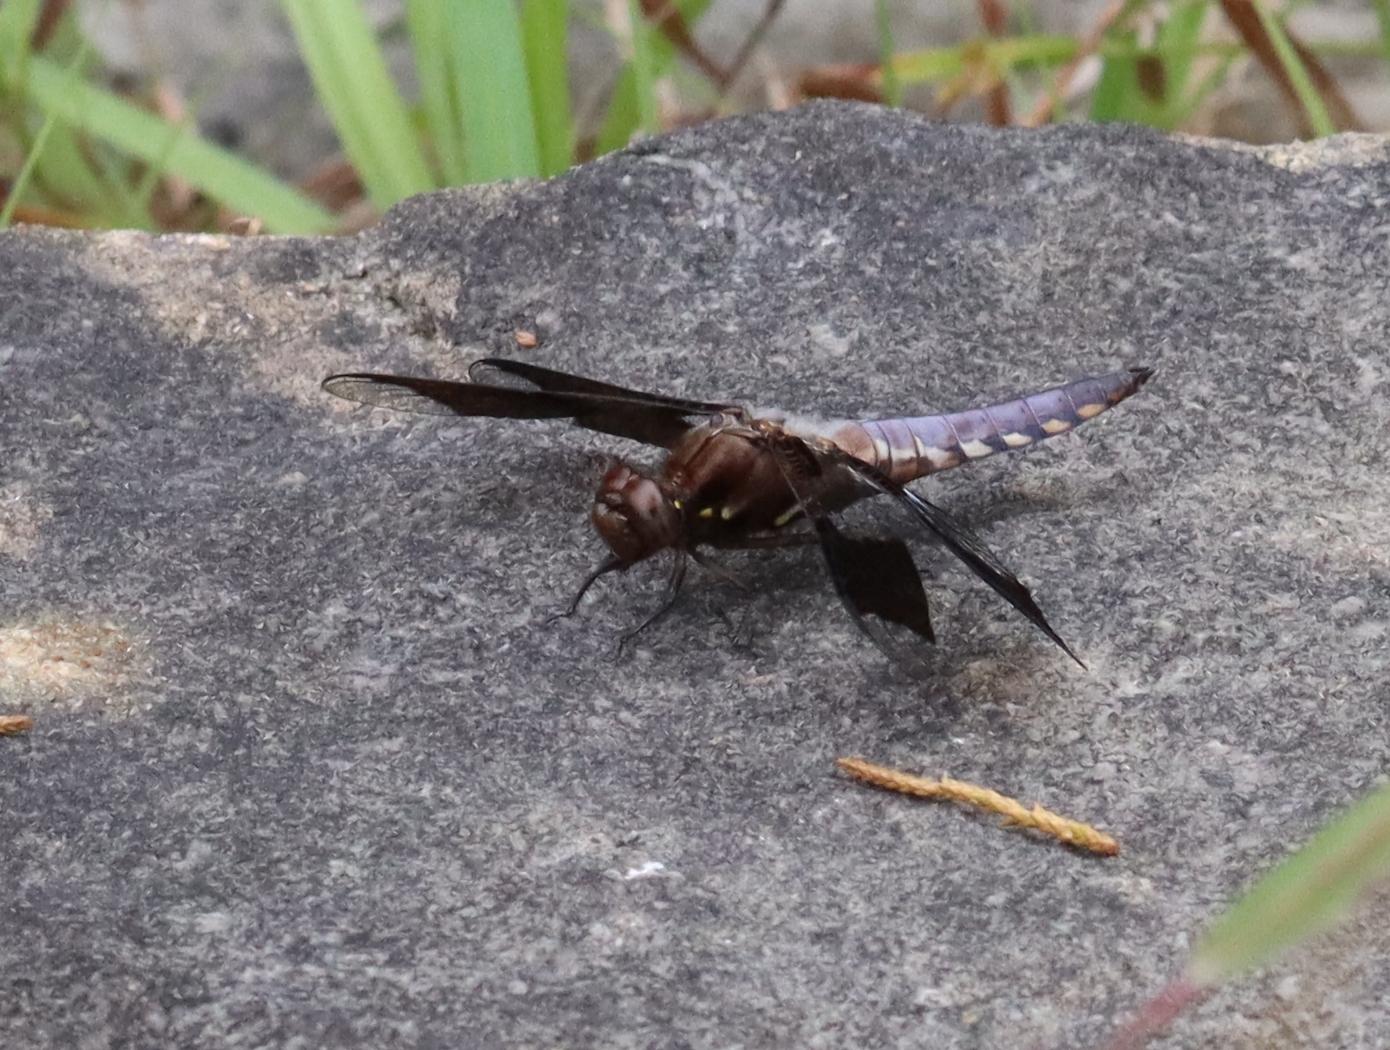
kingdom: Animalia
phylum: Arthropoda
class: Insecta
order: Odonata
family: Libellulidae
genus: Plathemis
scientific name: Plathemis lydia
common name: Common whitetail
